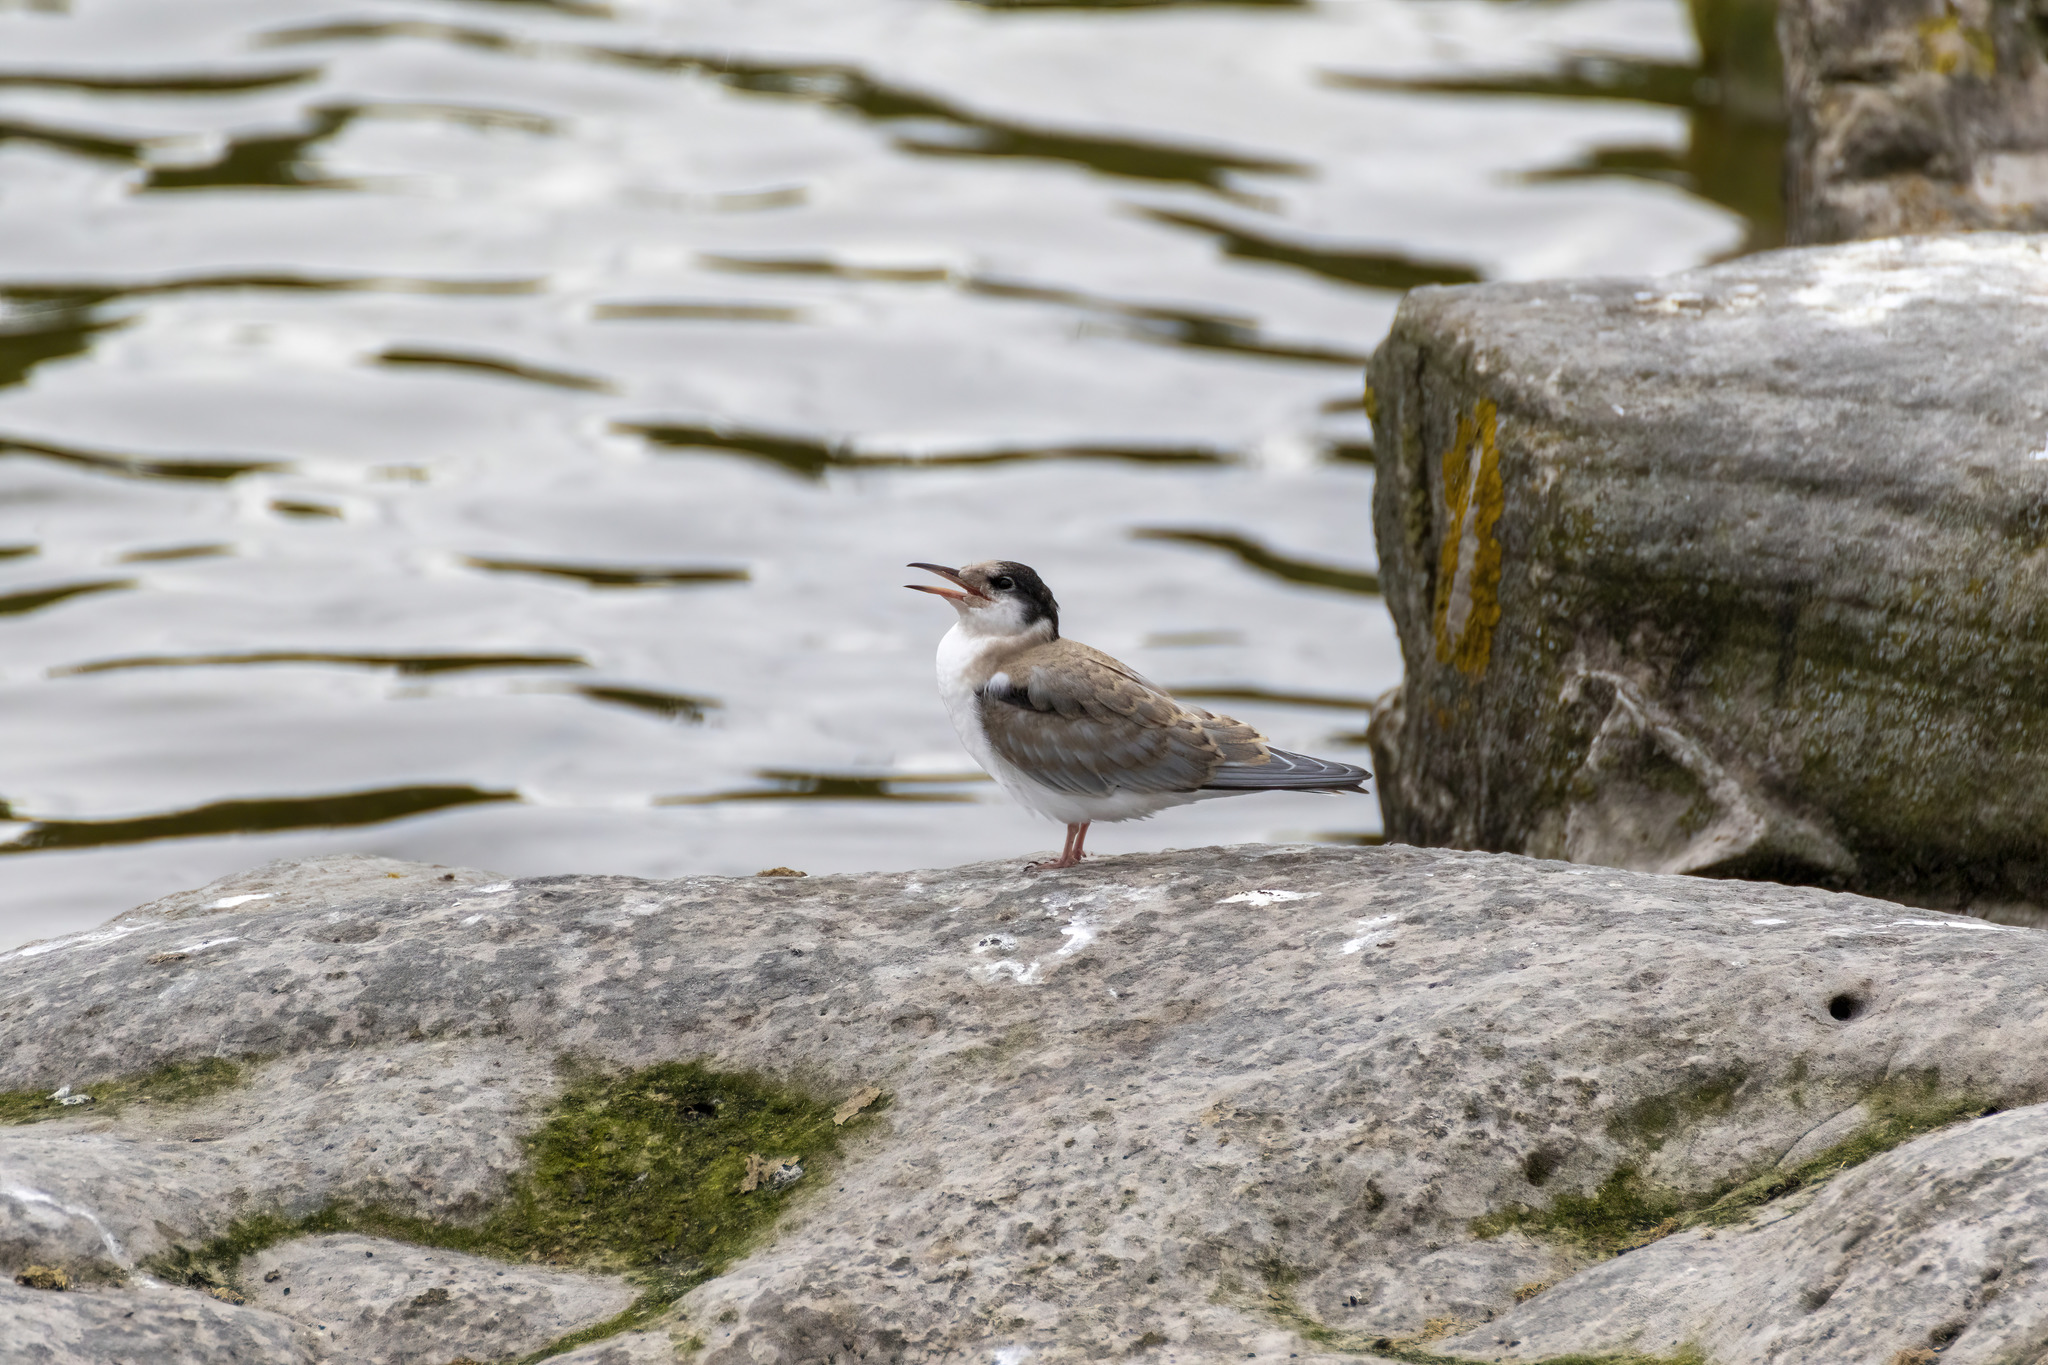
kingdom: Animalia
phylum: Chordata
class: Aves
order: Charadriiformes
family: Laridae
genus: Sterna
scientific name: Sterna hirundo
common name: Common tern
